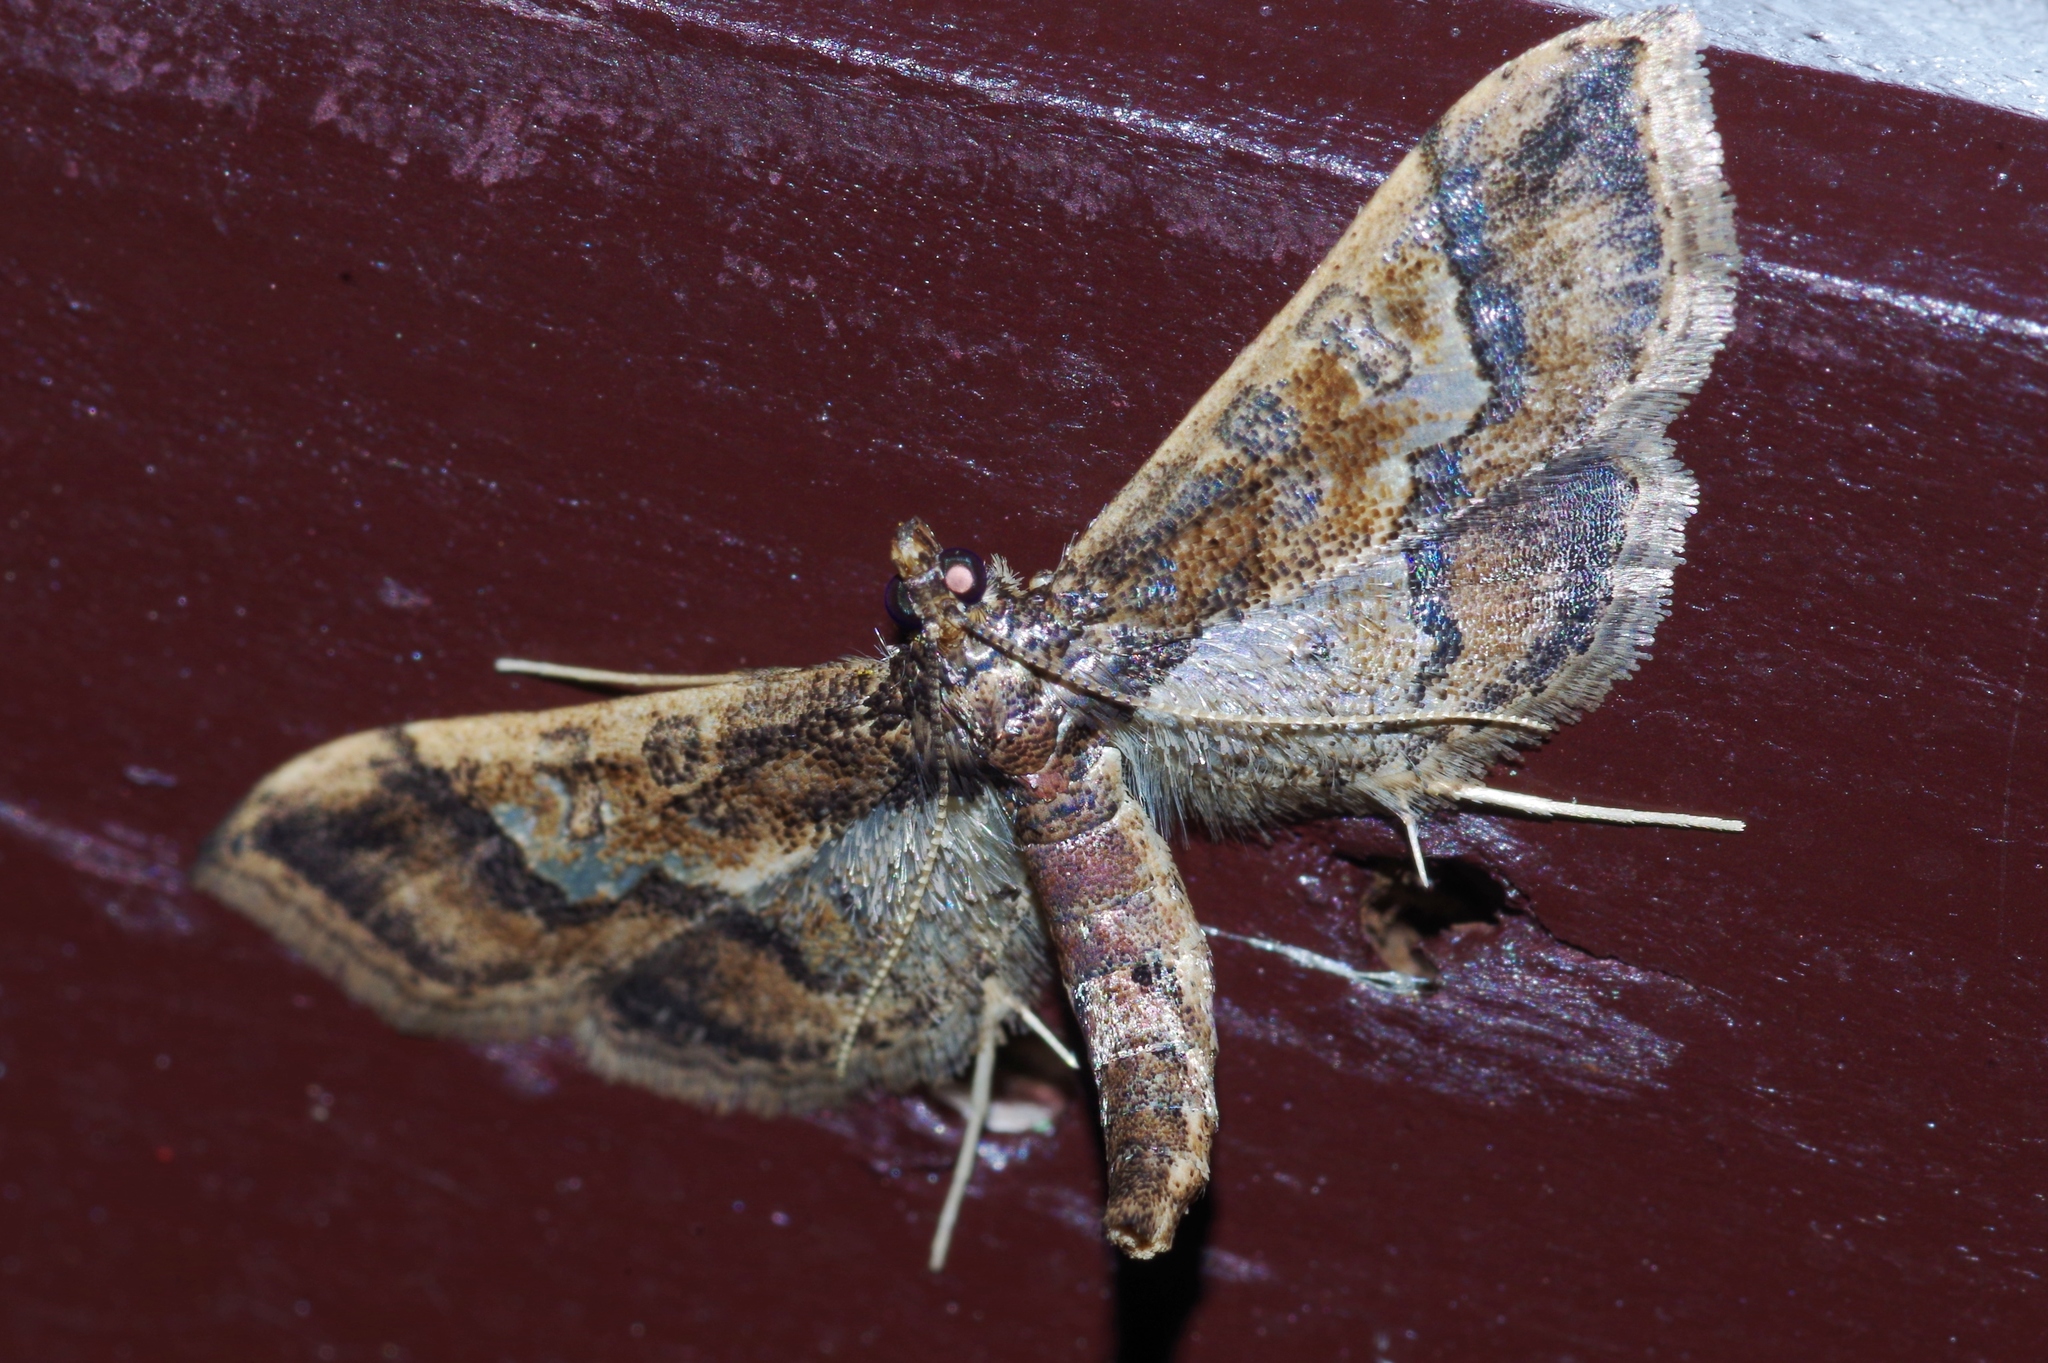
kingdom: Animalia
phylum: Arthropoda
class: Insecta
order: Lepidoptera
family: Crambidae
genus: Hydriris
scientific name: Hydriris ornatalis
